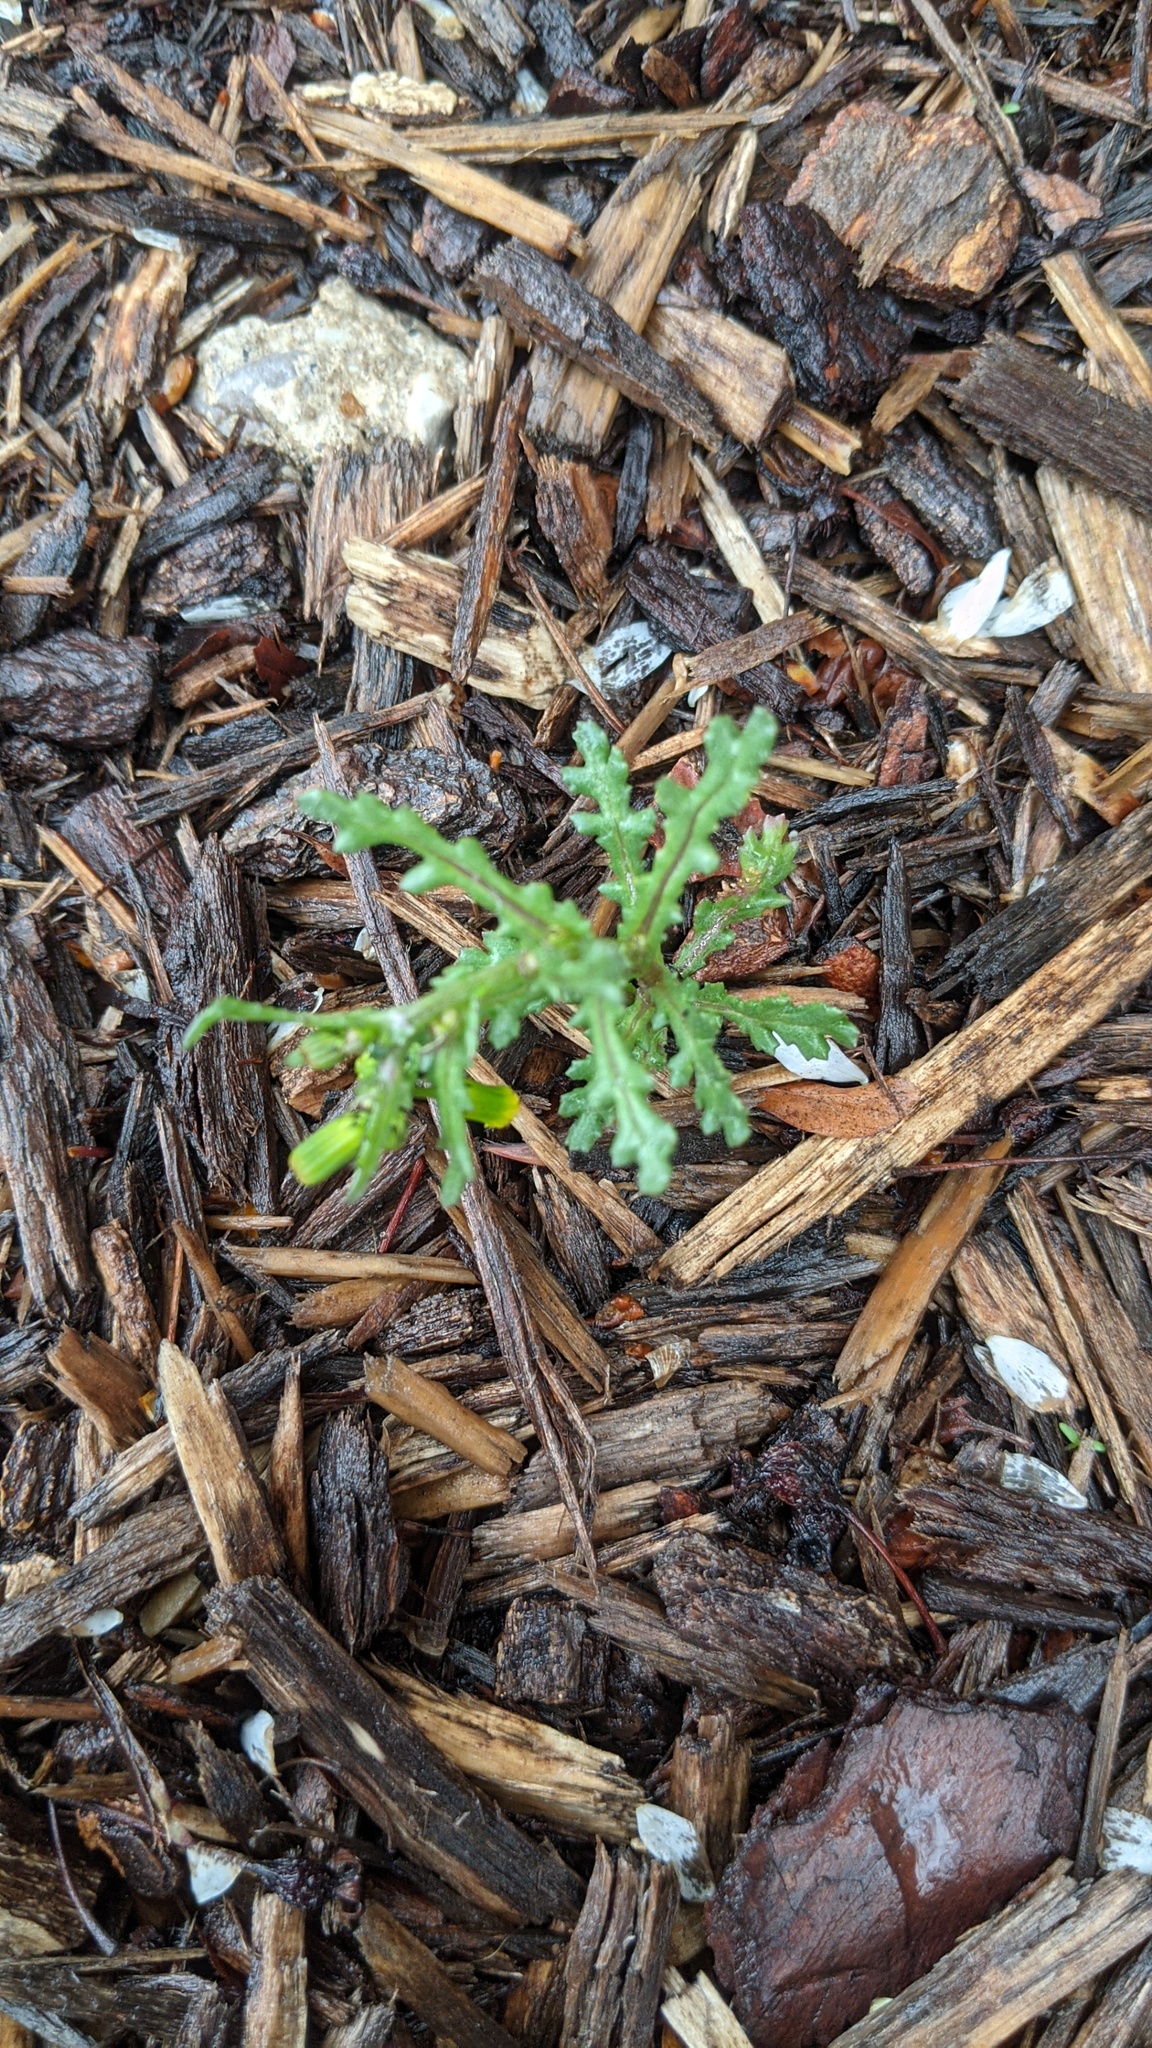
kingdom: Plantae
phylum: Tracheophyta
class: Magnoliopsida
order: Asterales
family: Asteraceae
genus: Senecio
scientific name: Senecio vulgaris
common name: Old-man-in-the-spring
